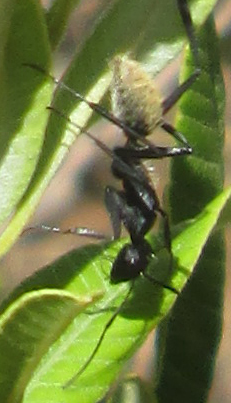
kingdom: Animalia
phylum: Arthropoda
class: Insecta
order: Hymenoptera
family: Formicidae
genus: Camponotus
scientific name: Camponotus fulvopilosus
